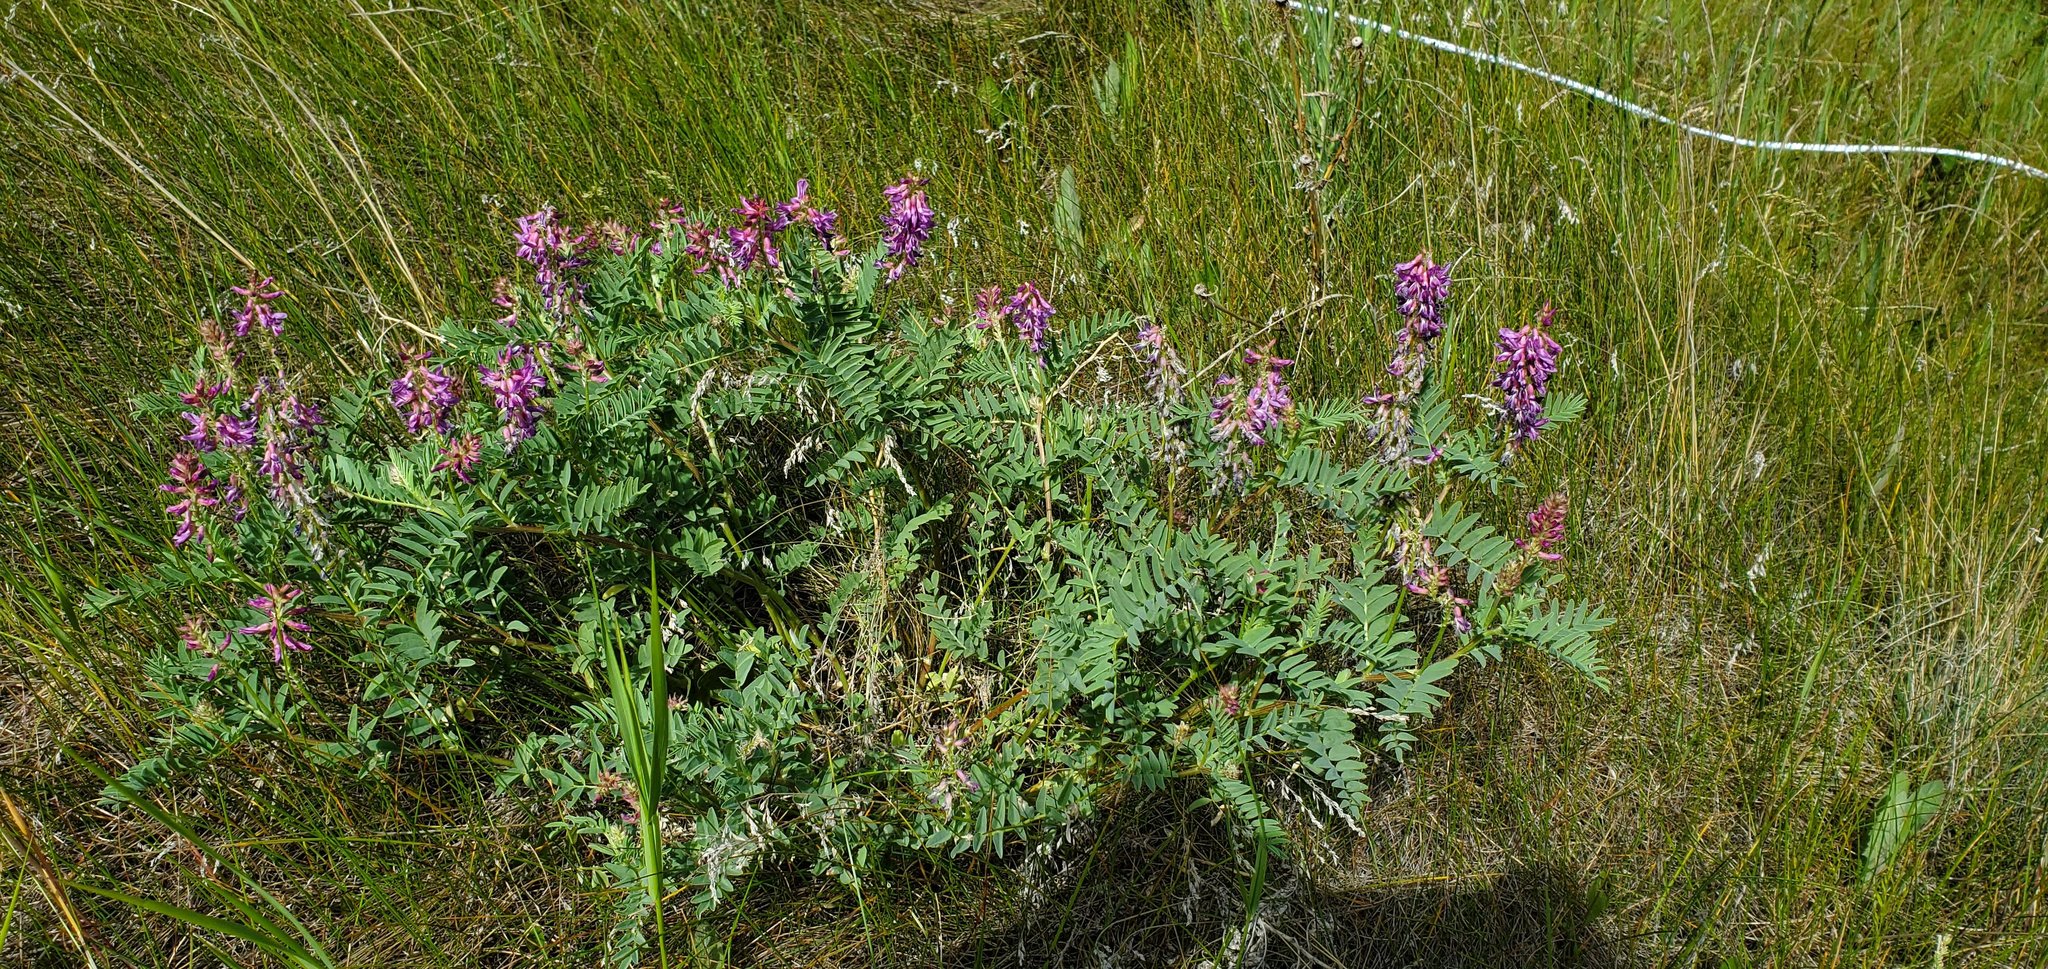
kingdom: Plantae
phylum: Tracheophyta
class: Magnoliopsida
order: Fabales
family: Fabaceae
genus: Astragalus
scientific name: Astragalus bisulcatus
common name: Two-groove milk-vetch
